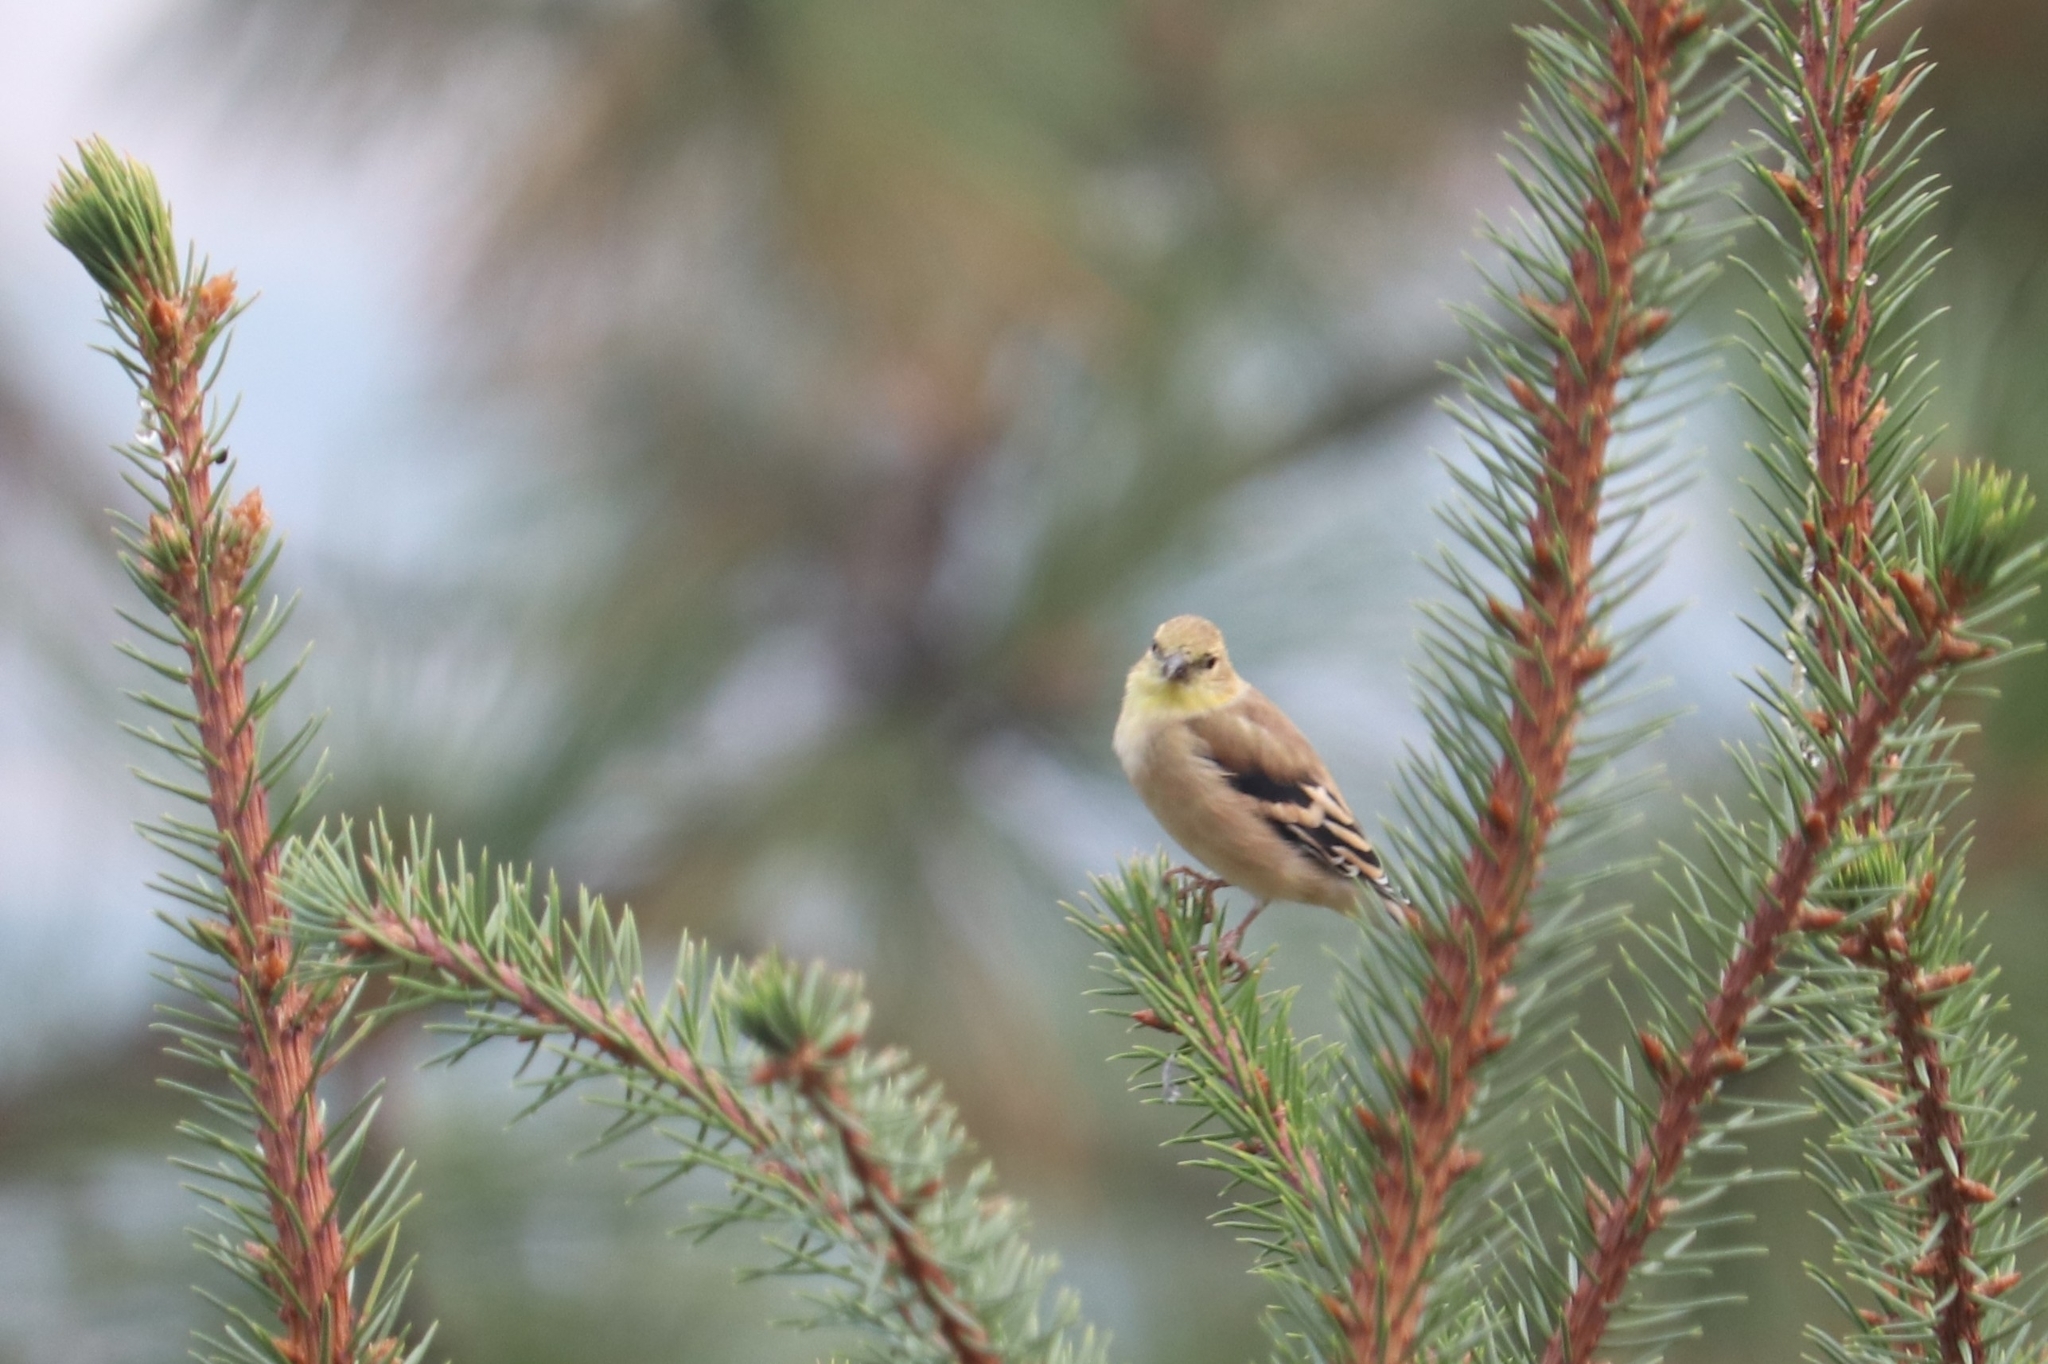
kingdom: Animalia
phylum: Chordata
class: Aves
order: Passeriformes
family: Fringillidae
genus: Spinus
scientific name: Spinus tristis
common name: American goldfinch
